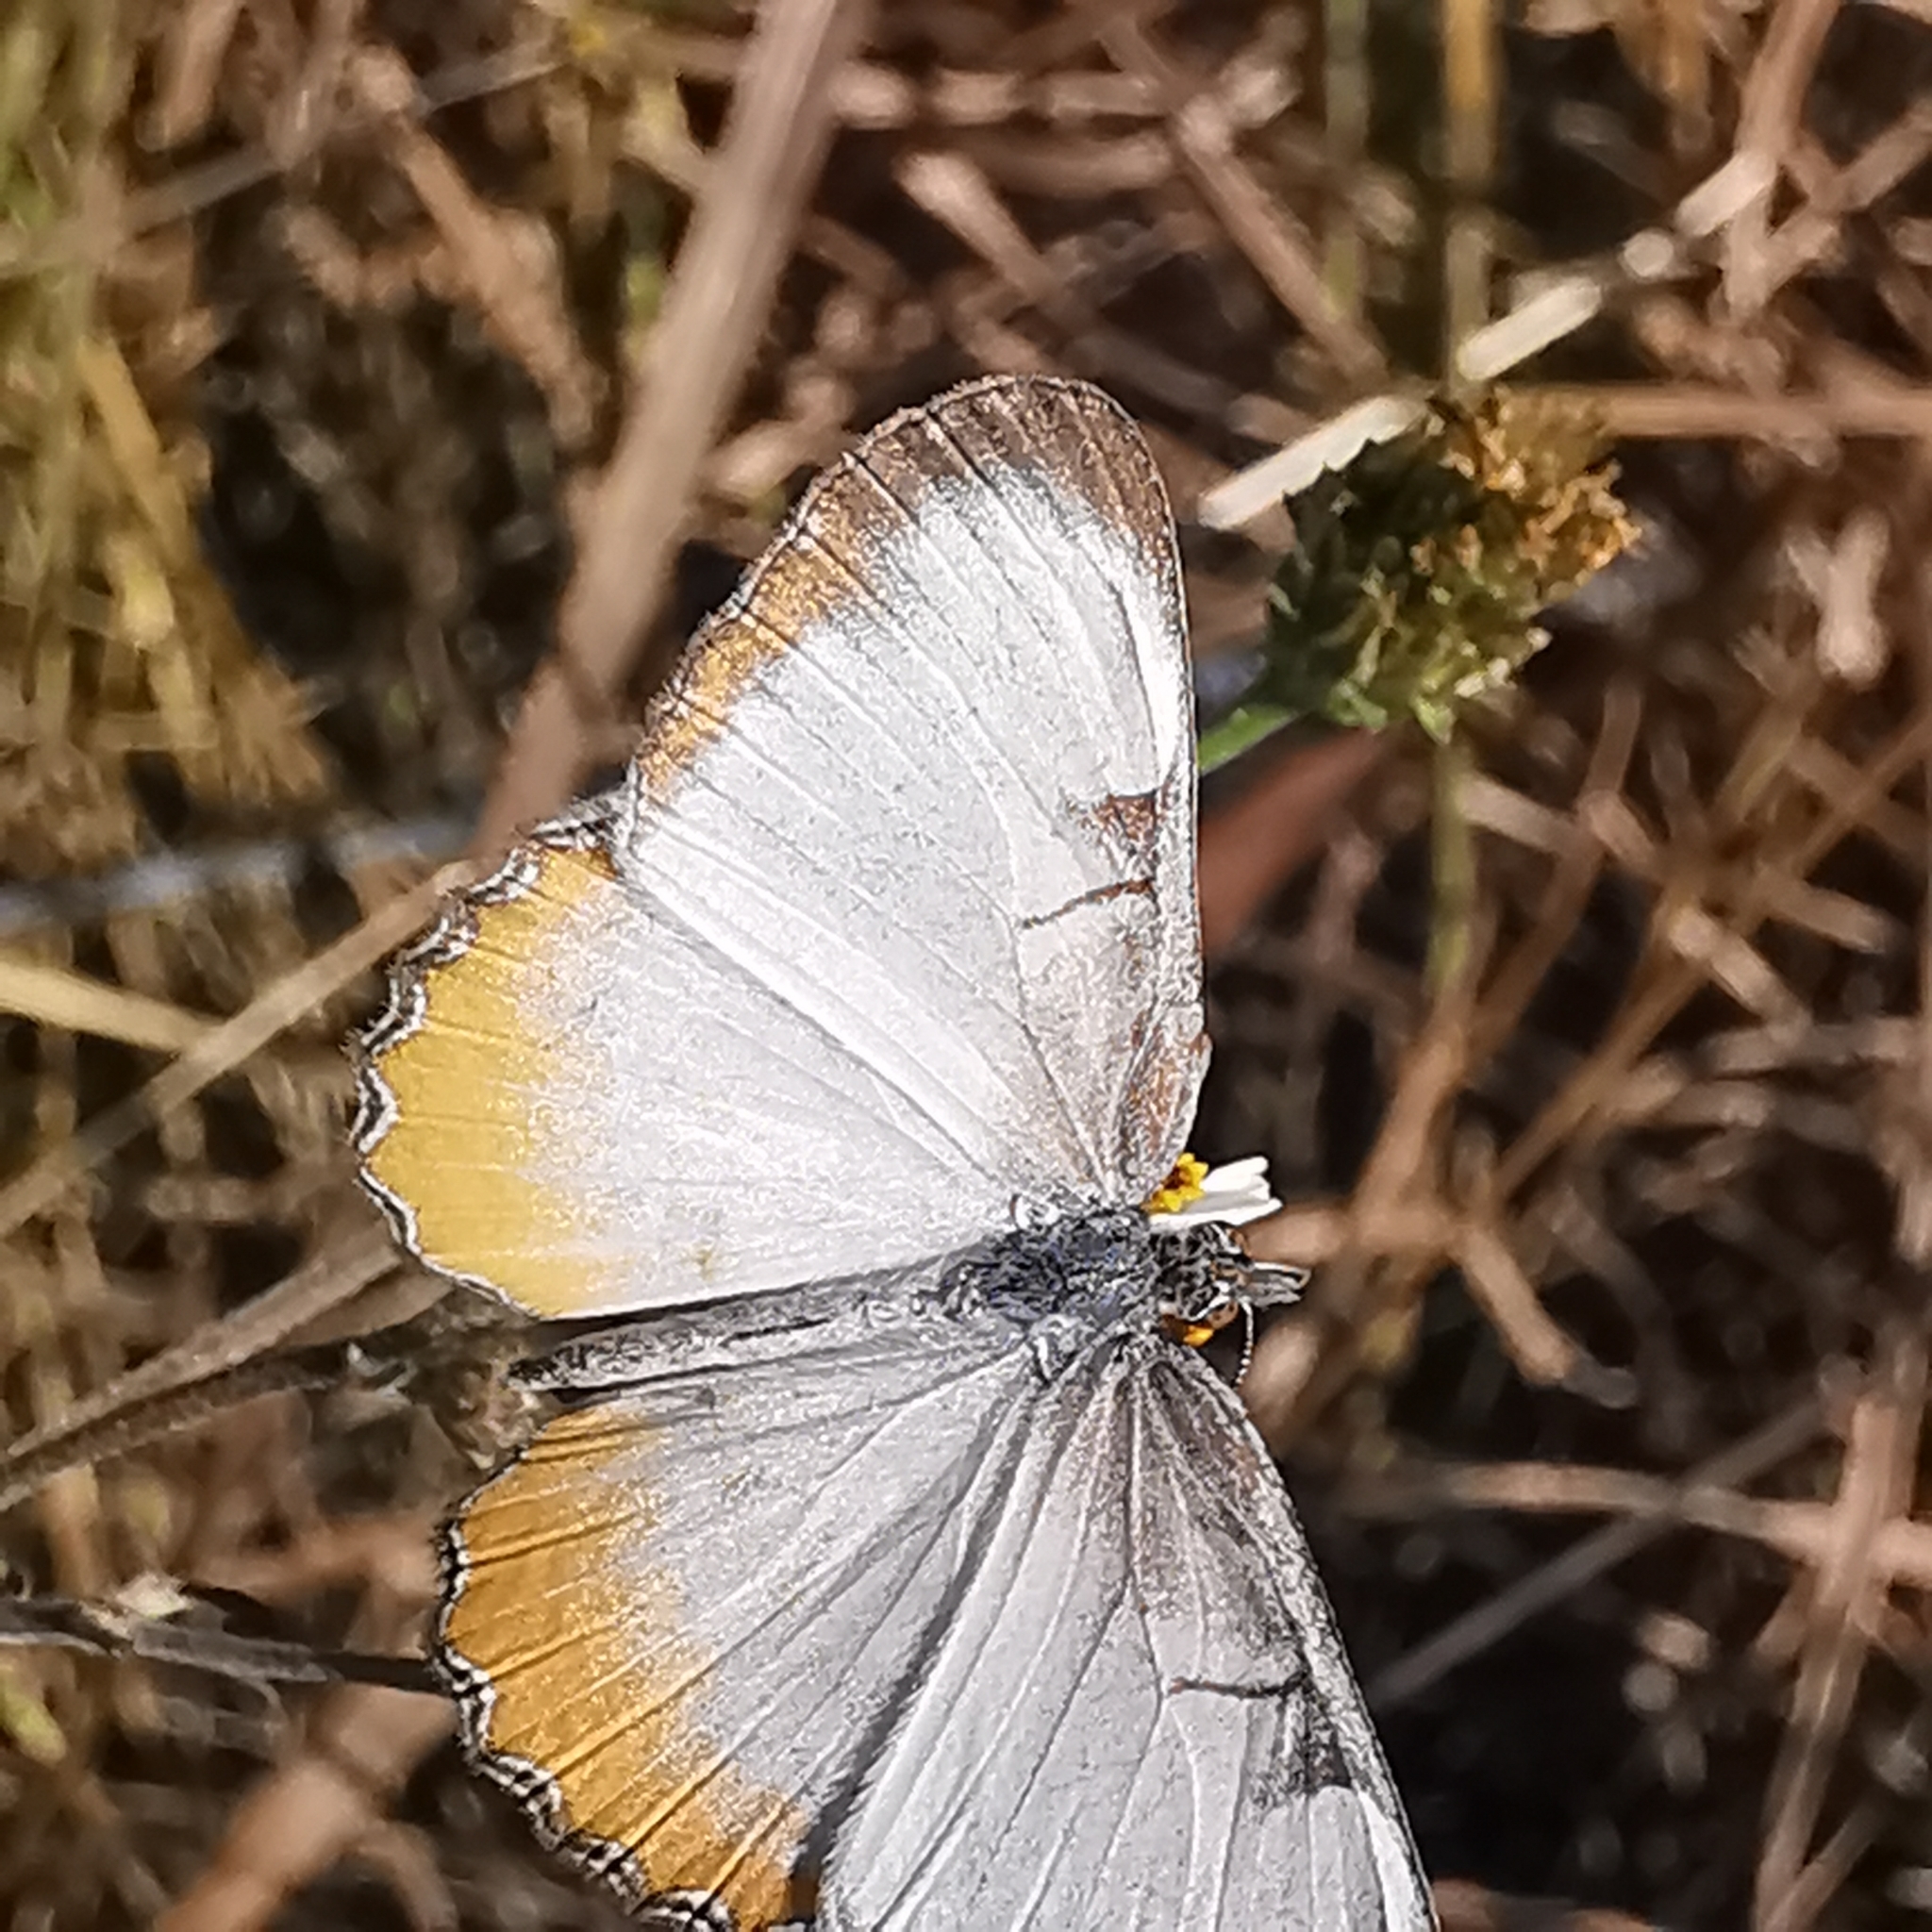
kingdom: Animalia
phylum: Arthropoda
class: Insecta
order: Lepidoptera
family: Nymphalidae
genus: Mestra
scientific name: Mestra amymone
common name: Common mestra
